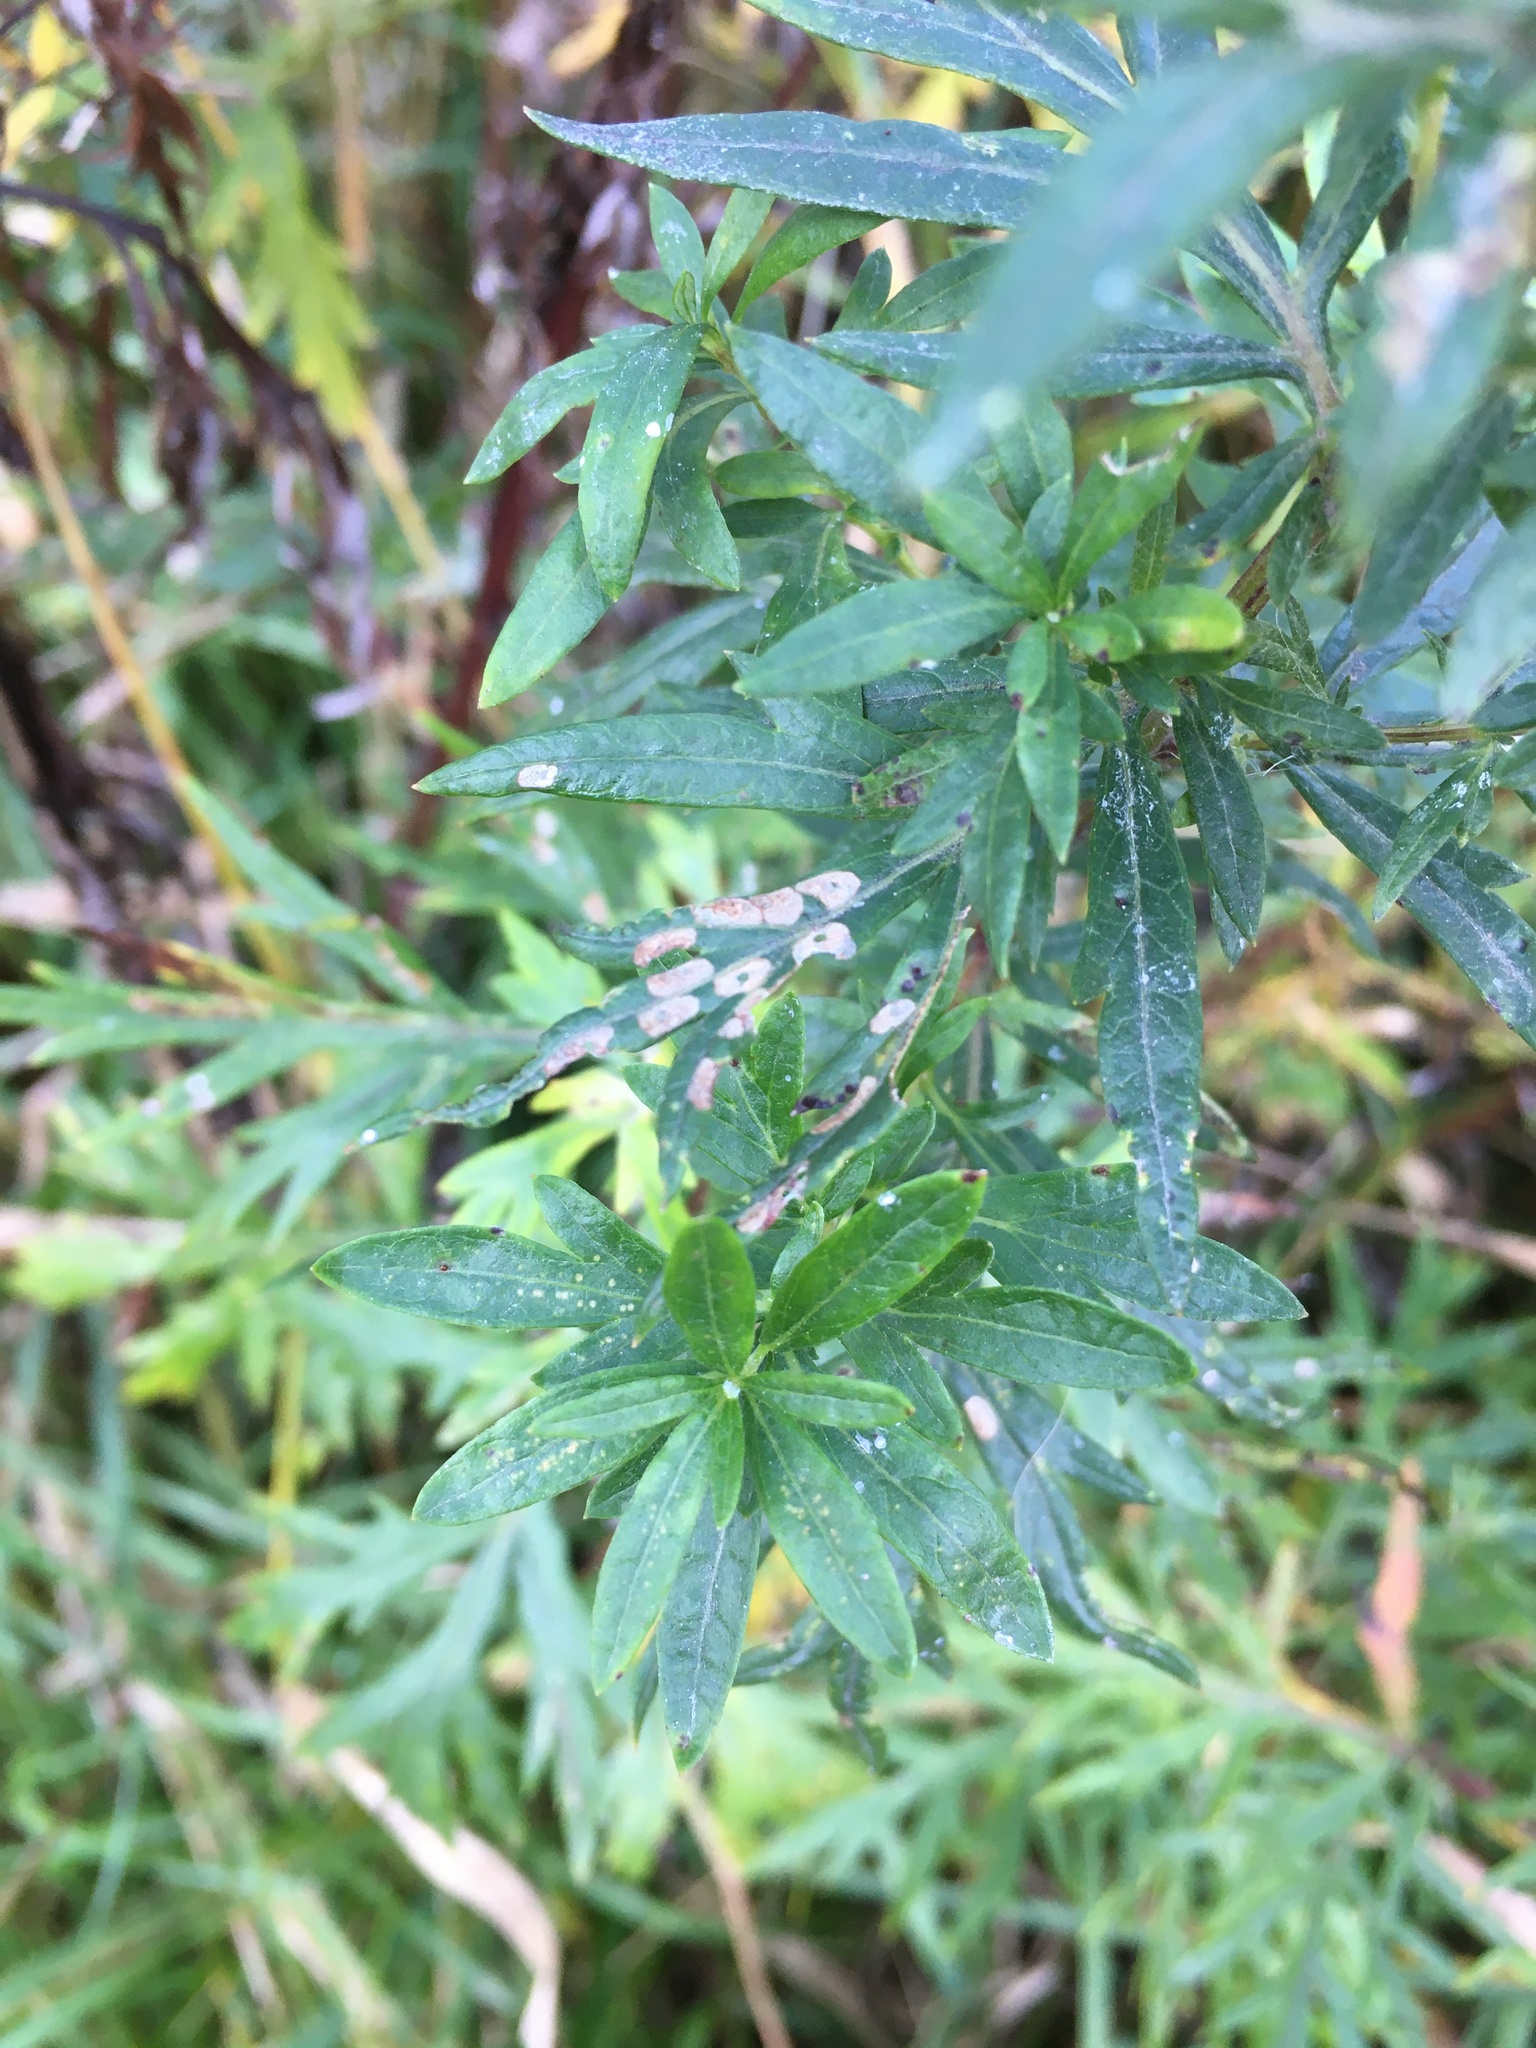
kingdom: Plantae
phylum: Tracheophyta
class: Magnoliopsida
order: Asterales
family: Asteraceae
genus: Artemisia
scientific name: Artemisia vulgaris
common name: Mugwort
